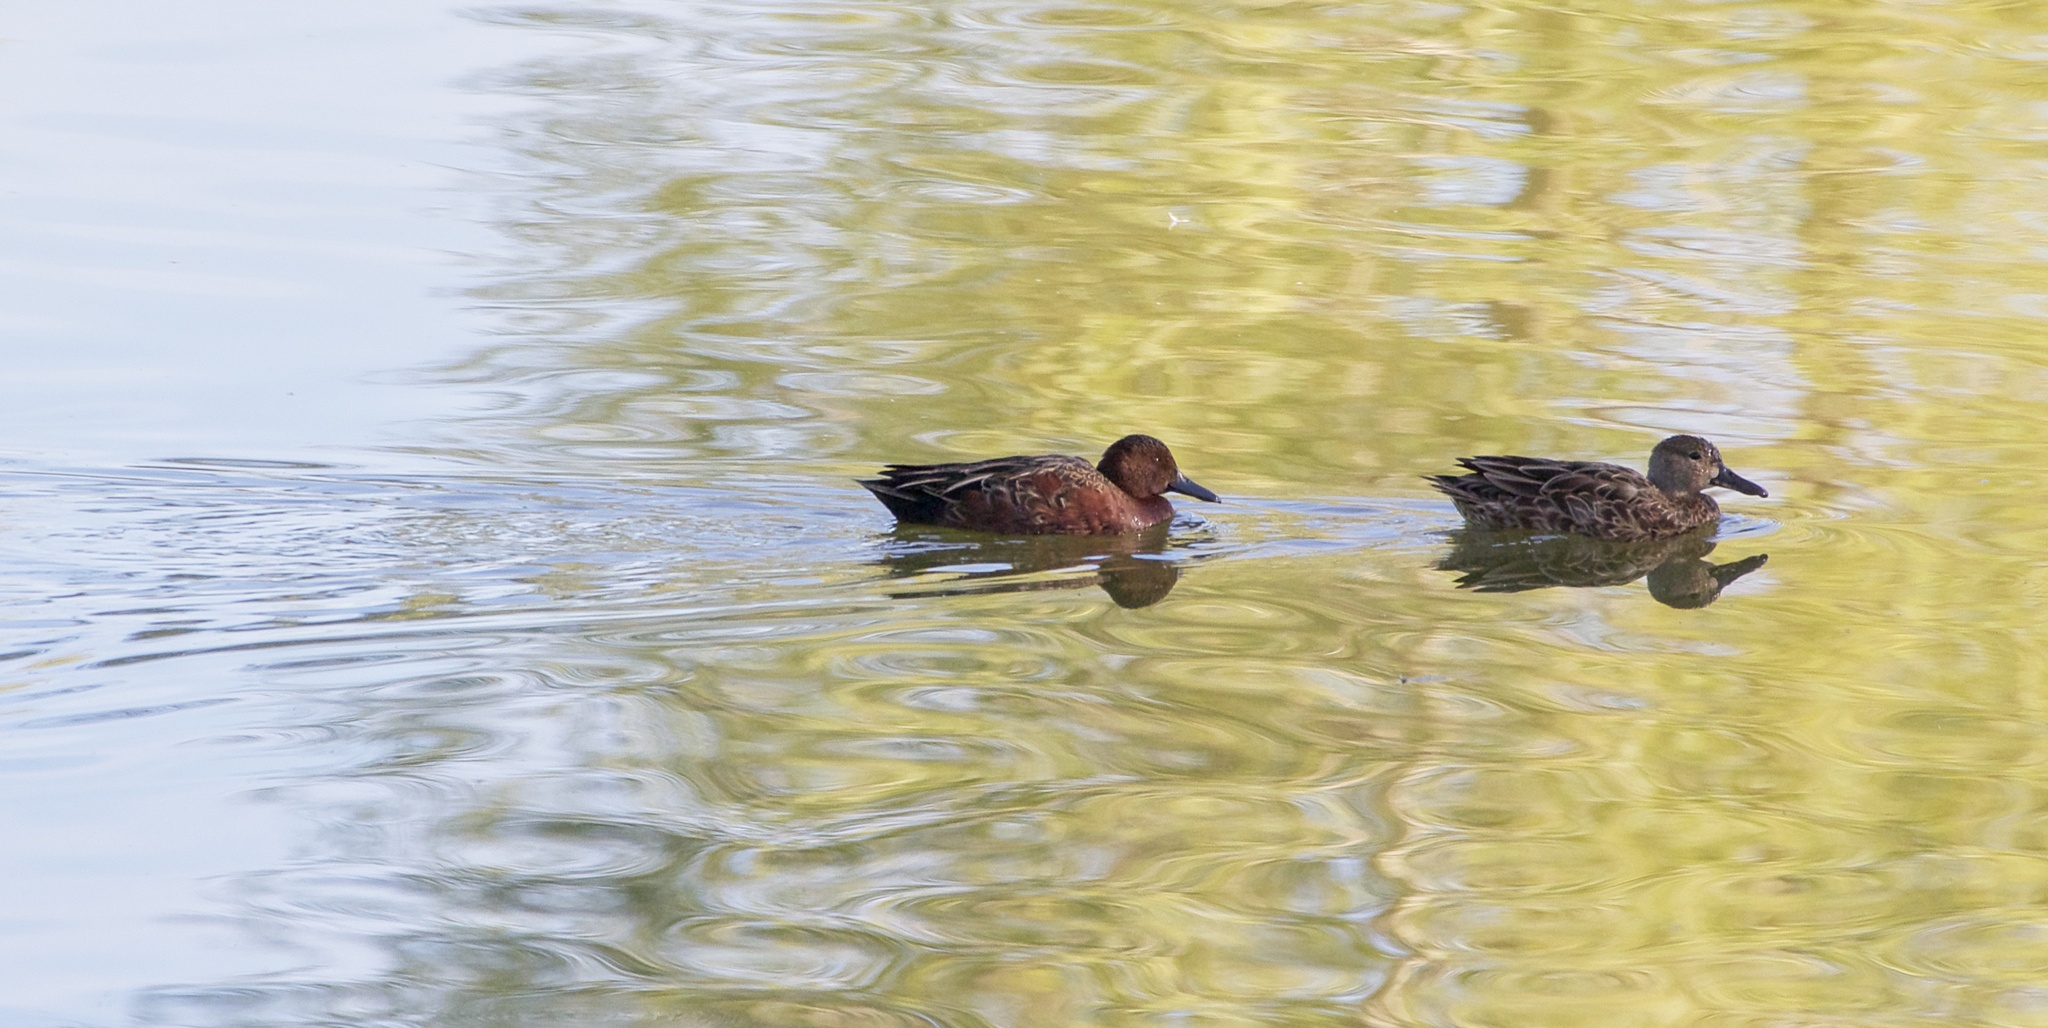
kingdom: Animalia
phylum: Chordata
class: Aves
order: Anseriformes
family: Anatidae
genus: Spatula
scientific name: Spatula cyanoptera
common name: Cinnamon teal
